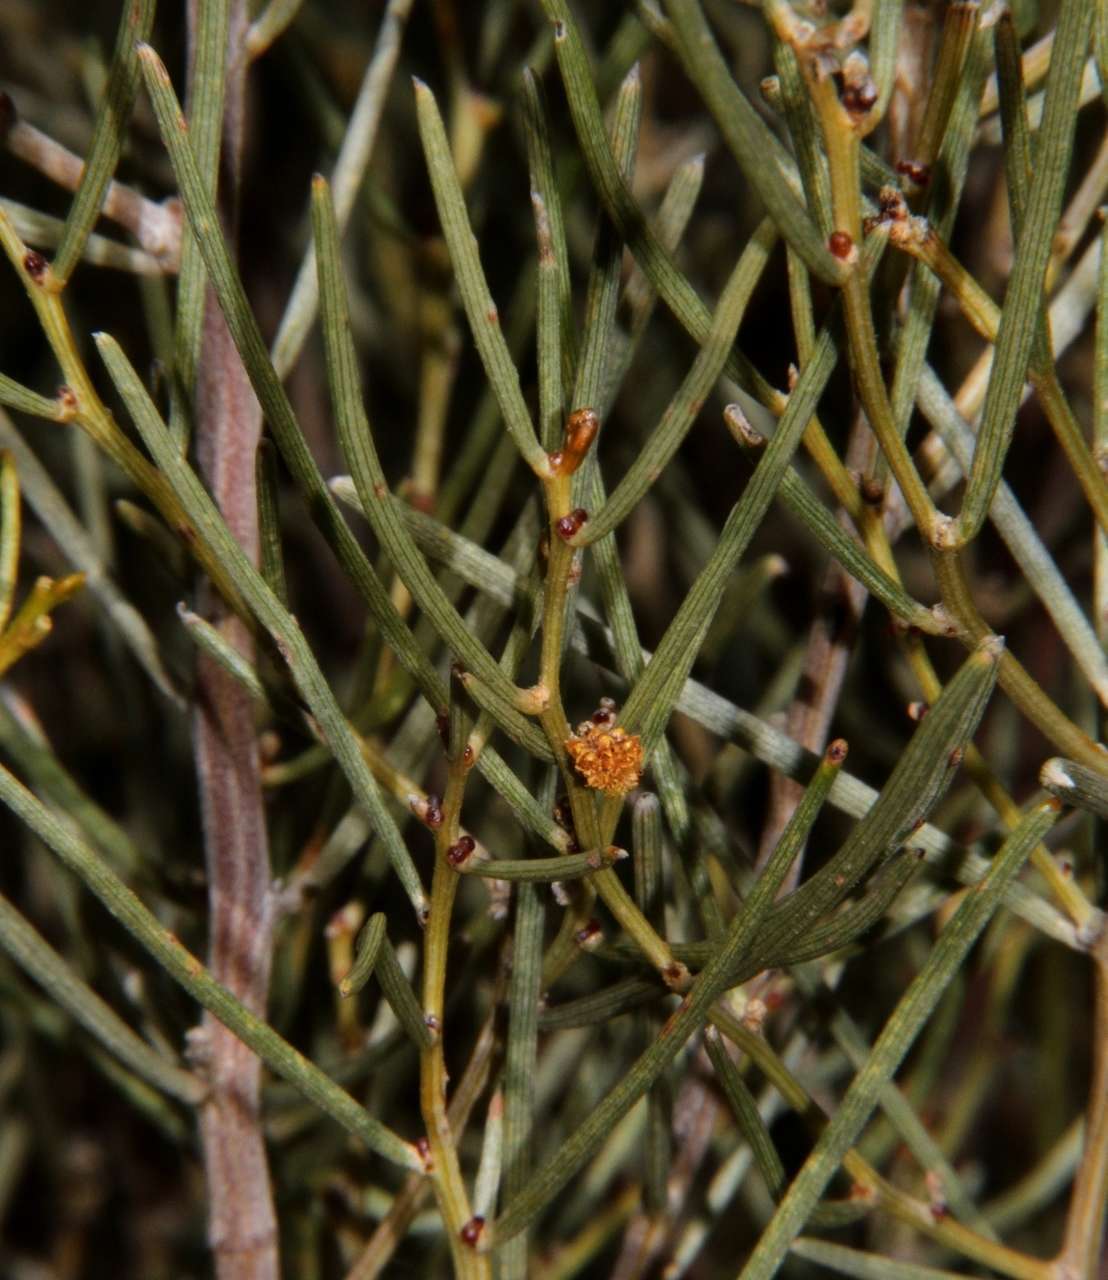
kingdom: Plantae
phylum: Tracheophyta
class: Magnoliopsida
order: Fabales
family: Fabaceae
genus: Acacia
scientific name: Acacia rigens
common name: Nealie
